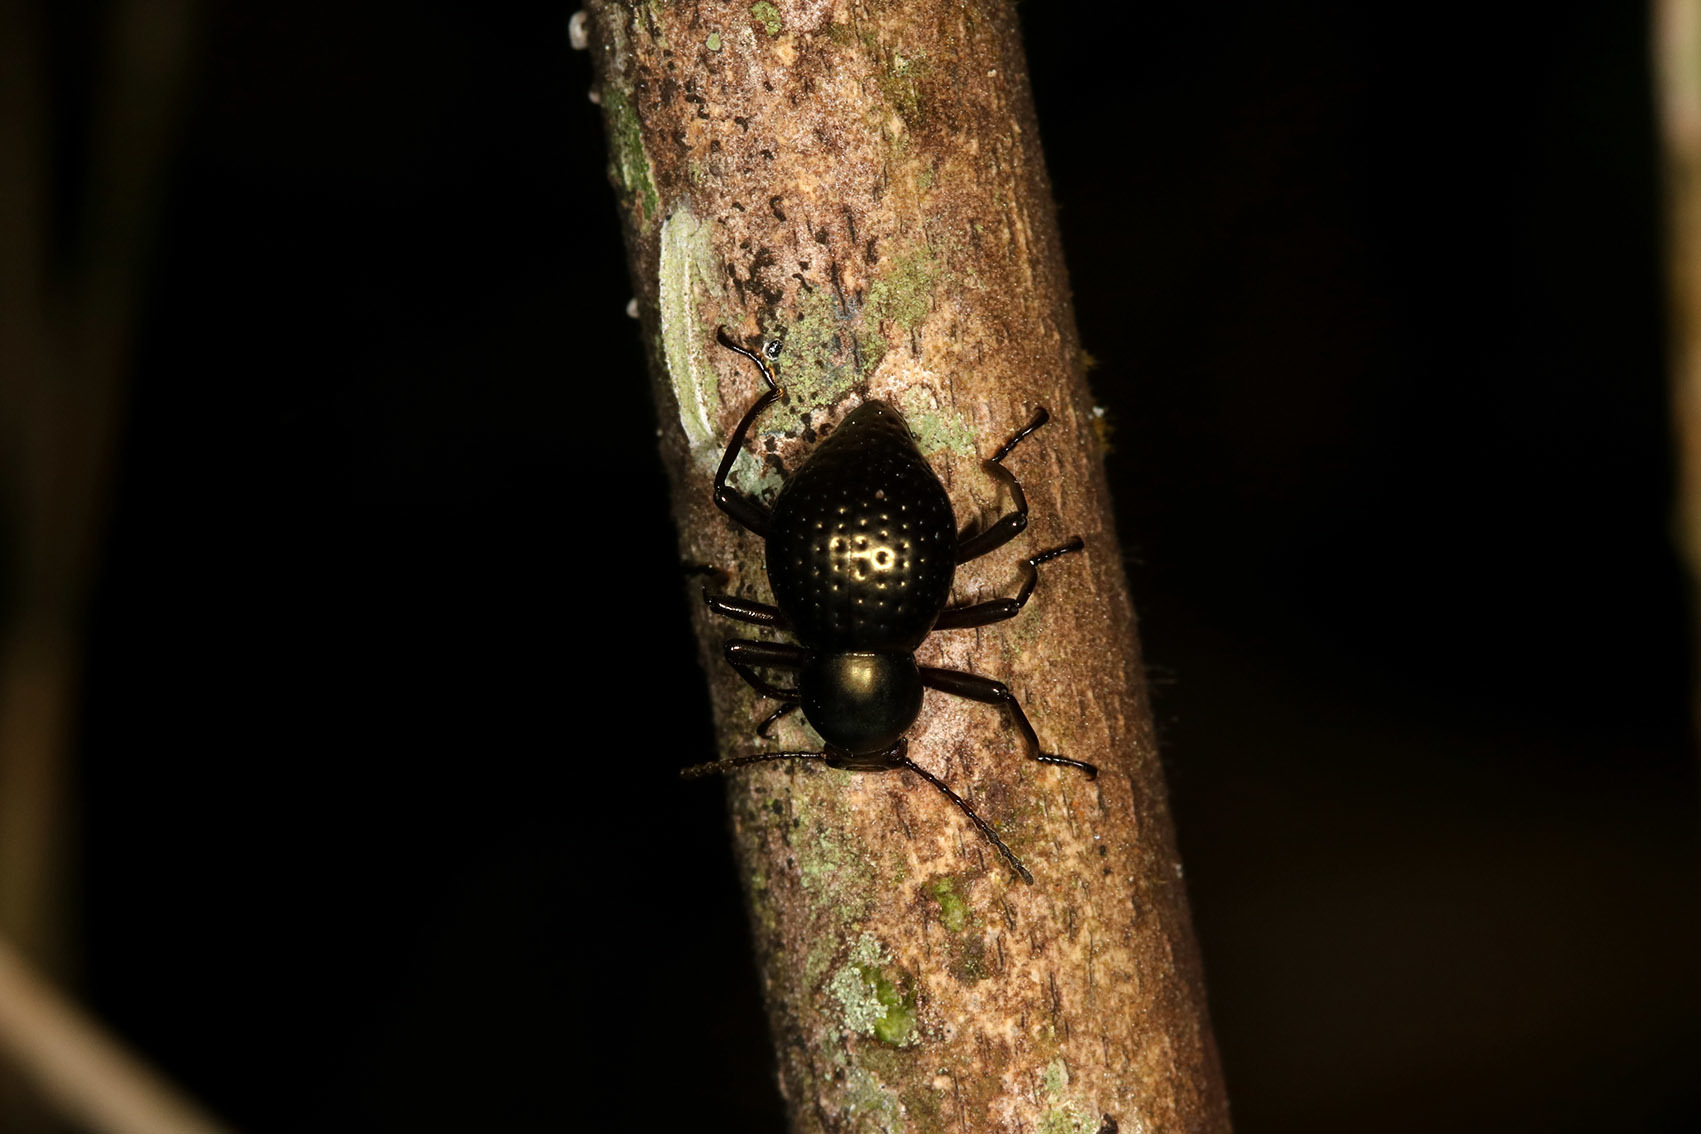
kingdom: Animalia
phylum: Arthropoda
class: Insecta
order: Coleoptera
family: Tenebrionidae
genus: Sphaerotus
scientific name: Sphaerotus
